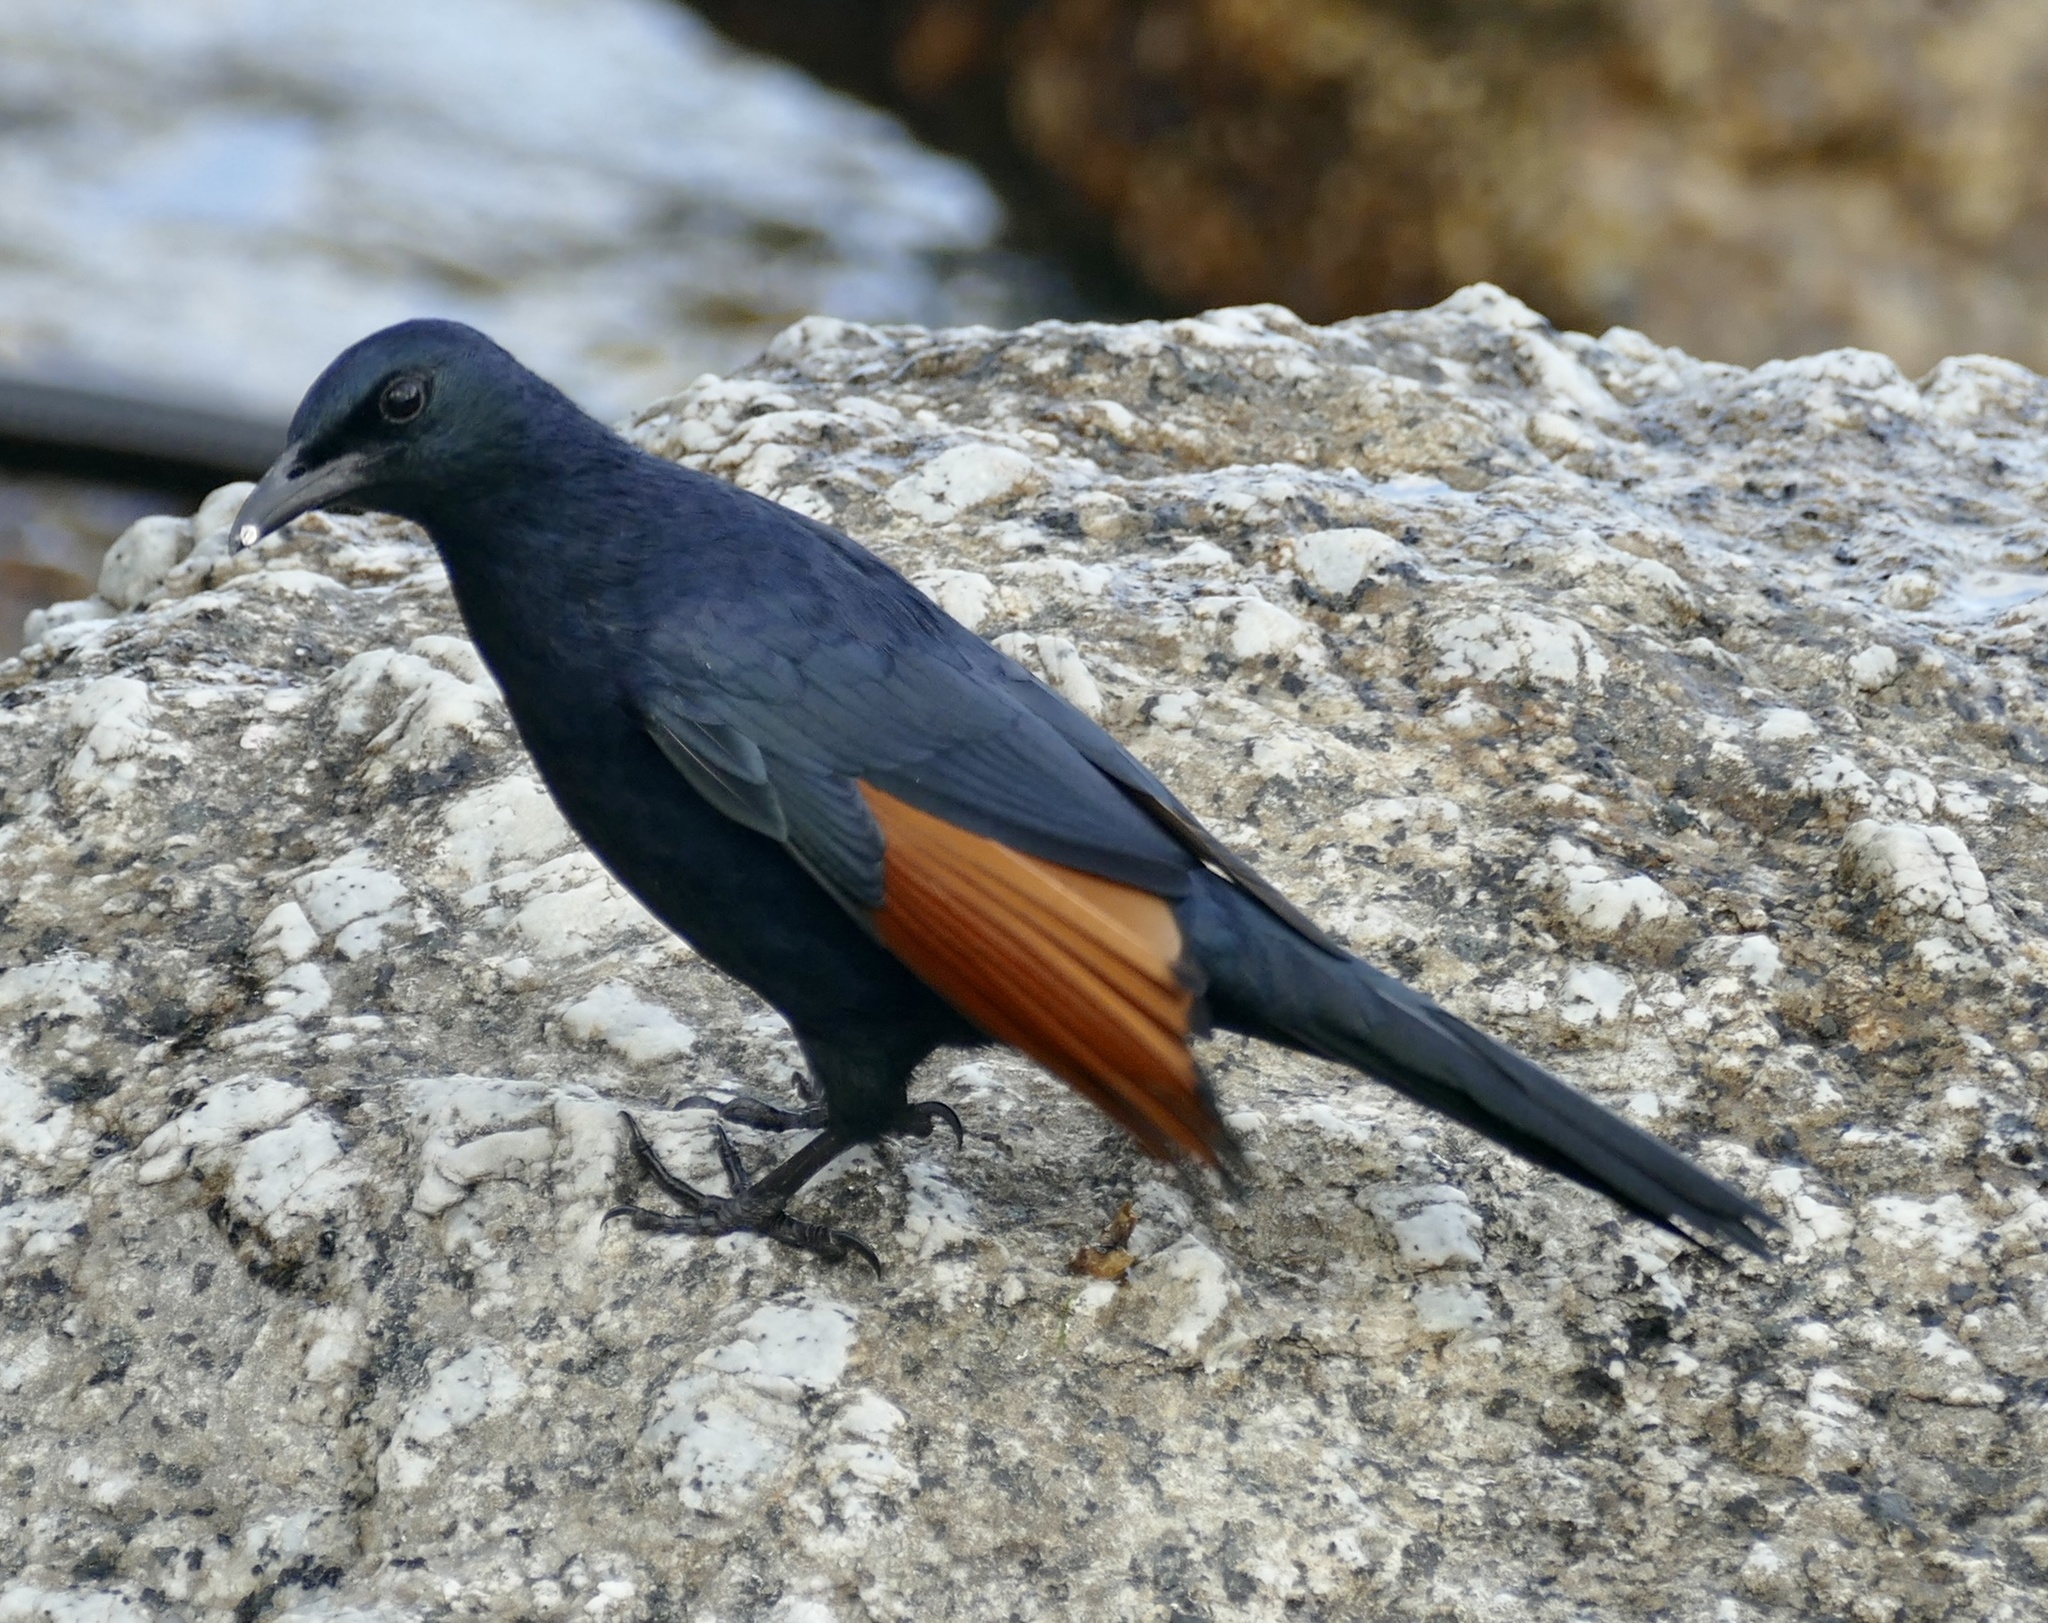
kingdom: Animalia
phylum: Chordata
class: Aves
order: Passeriformes
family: Sturnidae
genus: Onychognathus
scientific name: Onychognathus morio
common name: Red-winged starling
